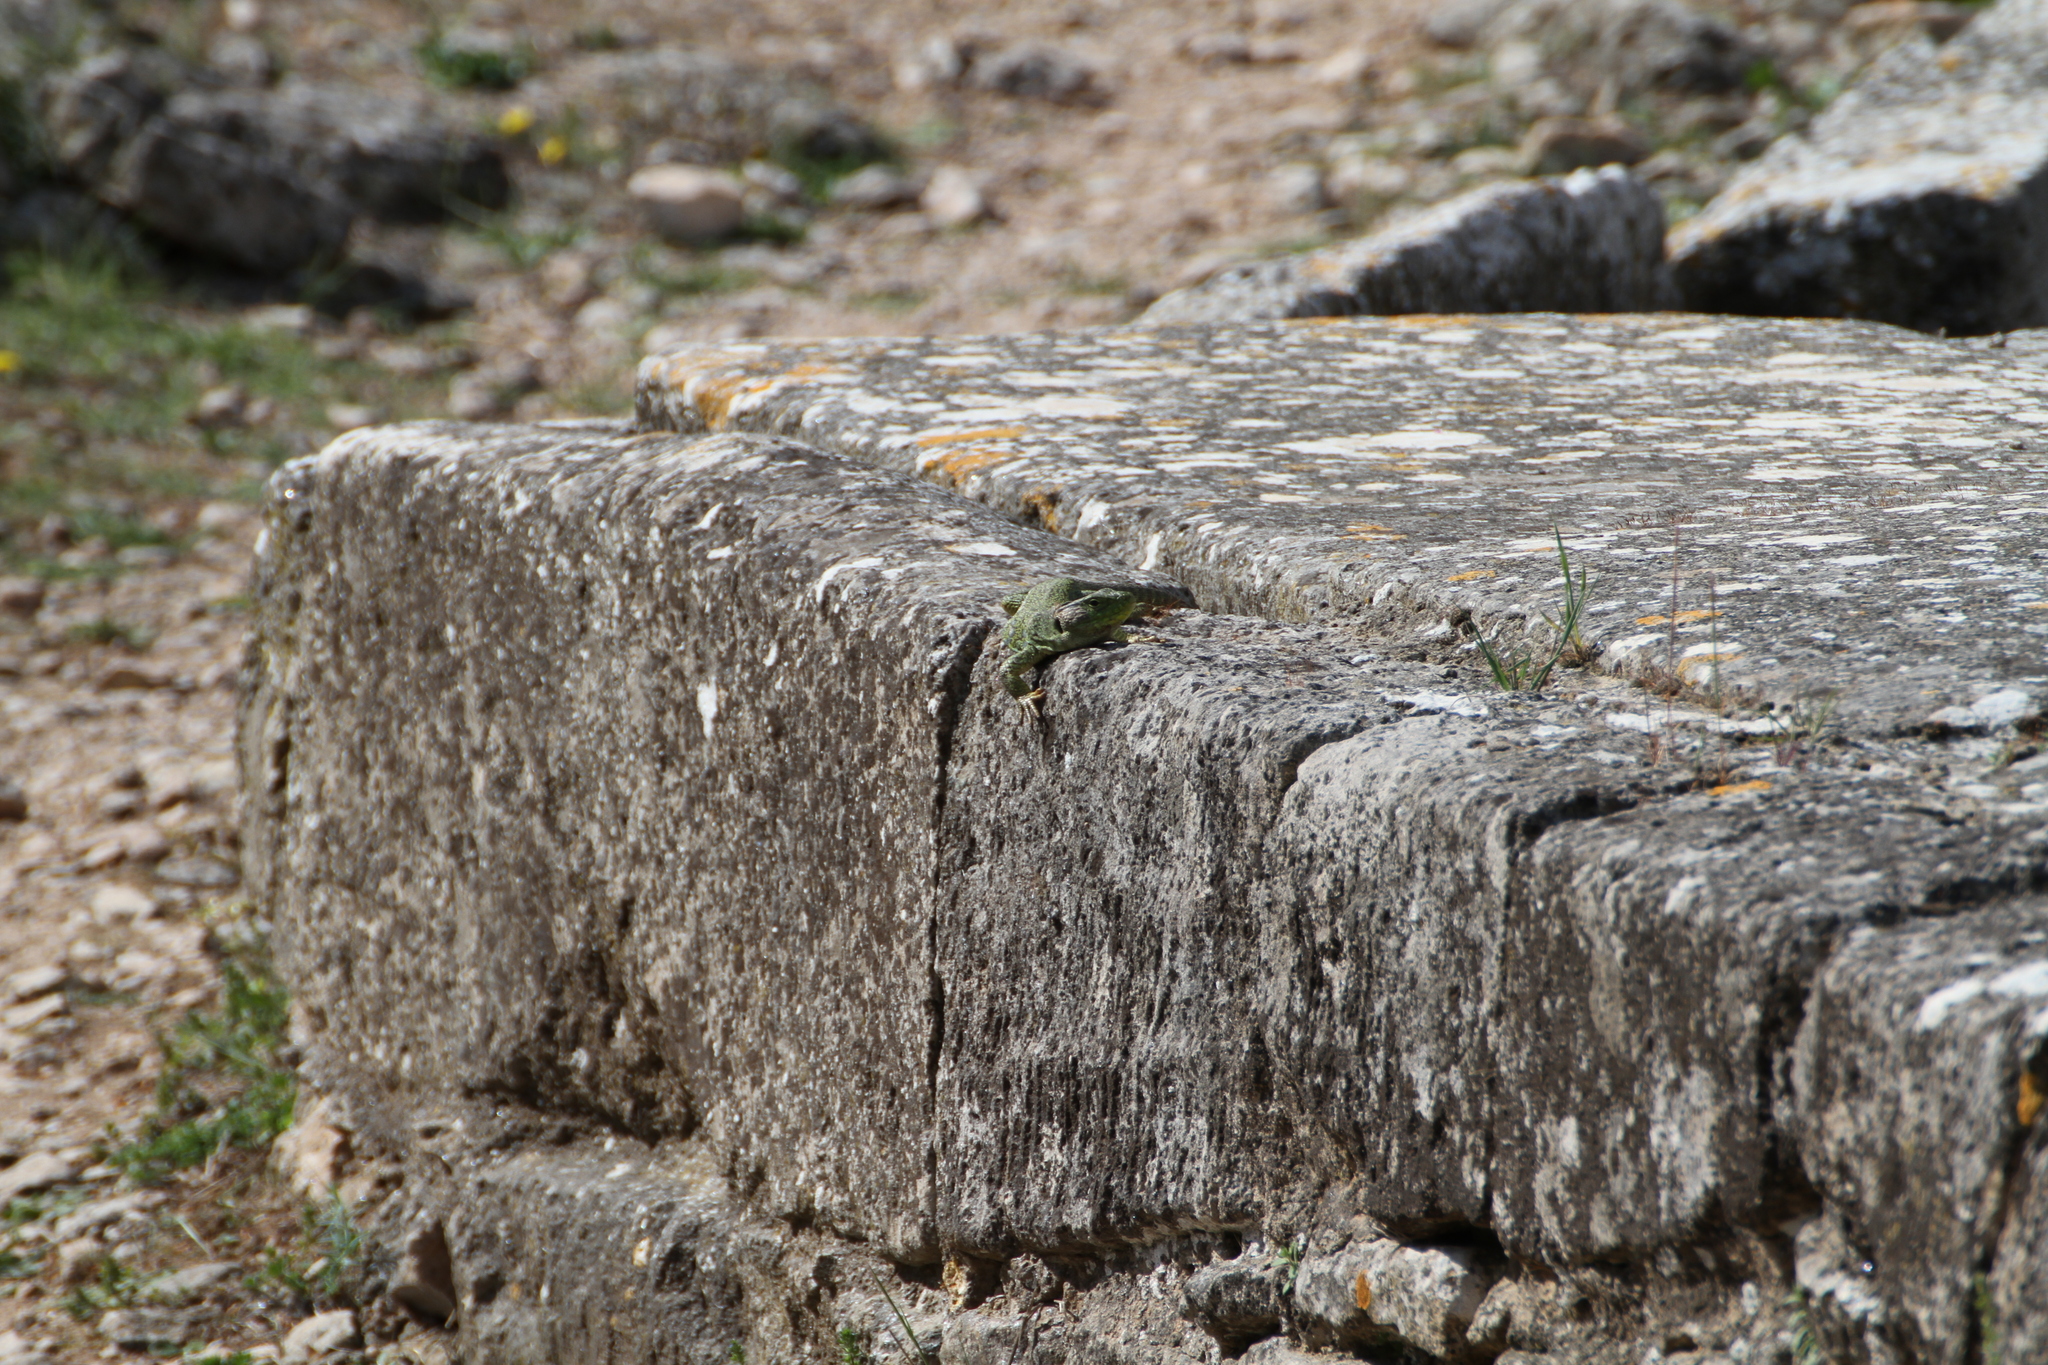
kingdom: Animalia
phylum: Chordata
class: Squamata
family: Lacertidae
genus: Timon
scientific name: Timon lepidus
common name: Ocellated lizard
